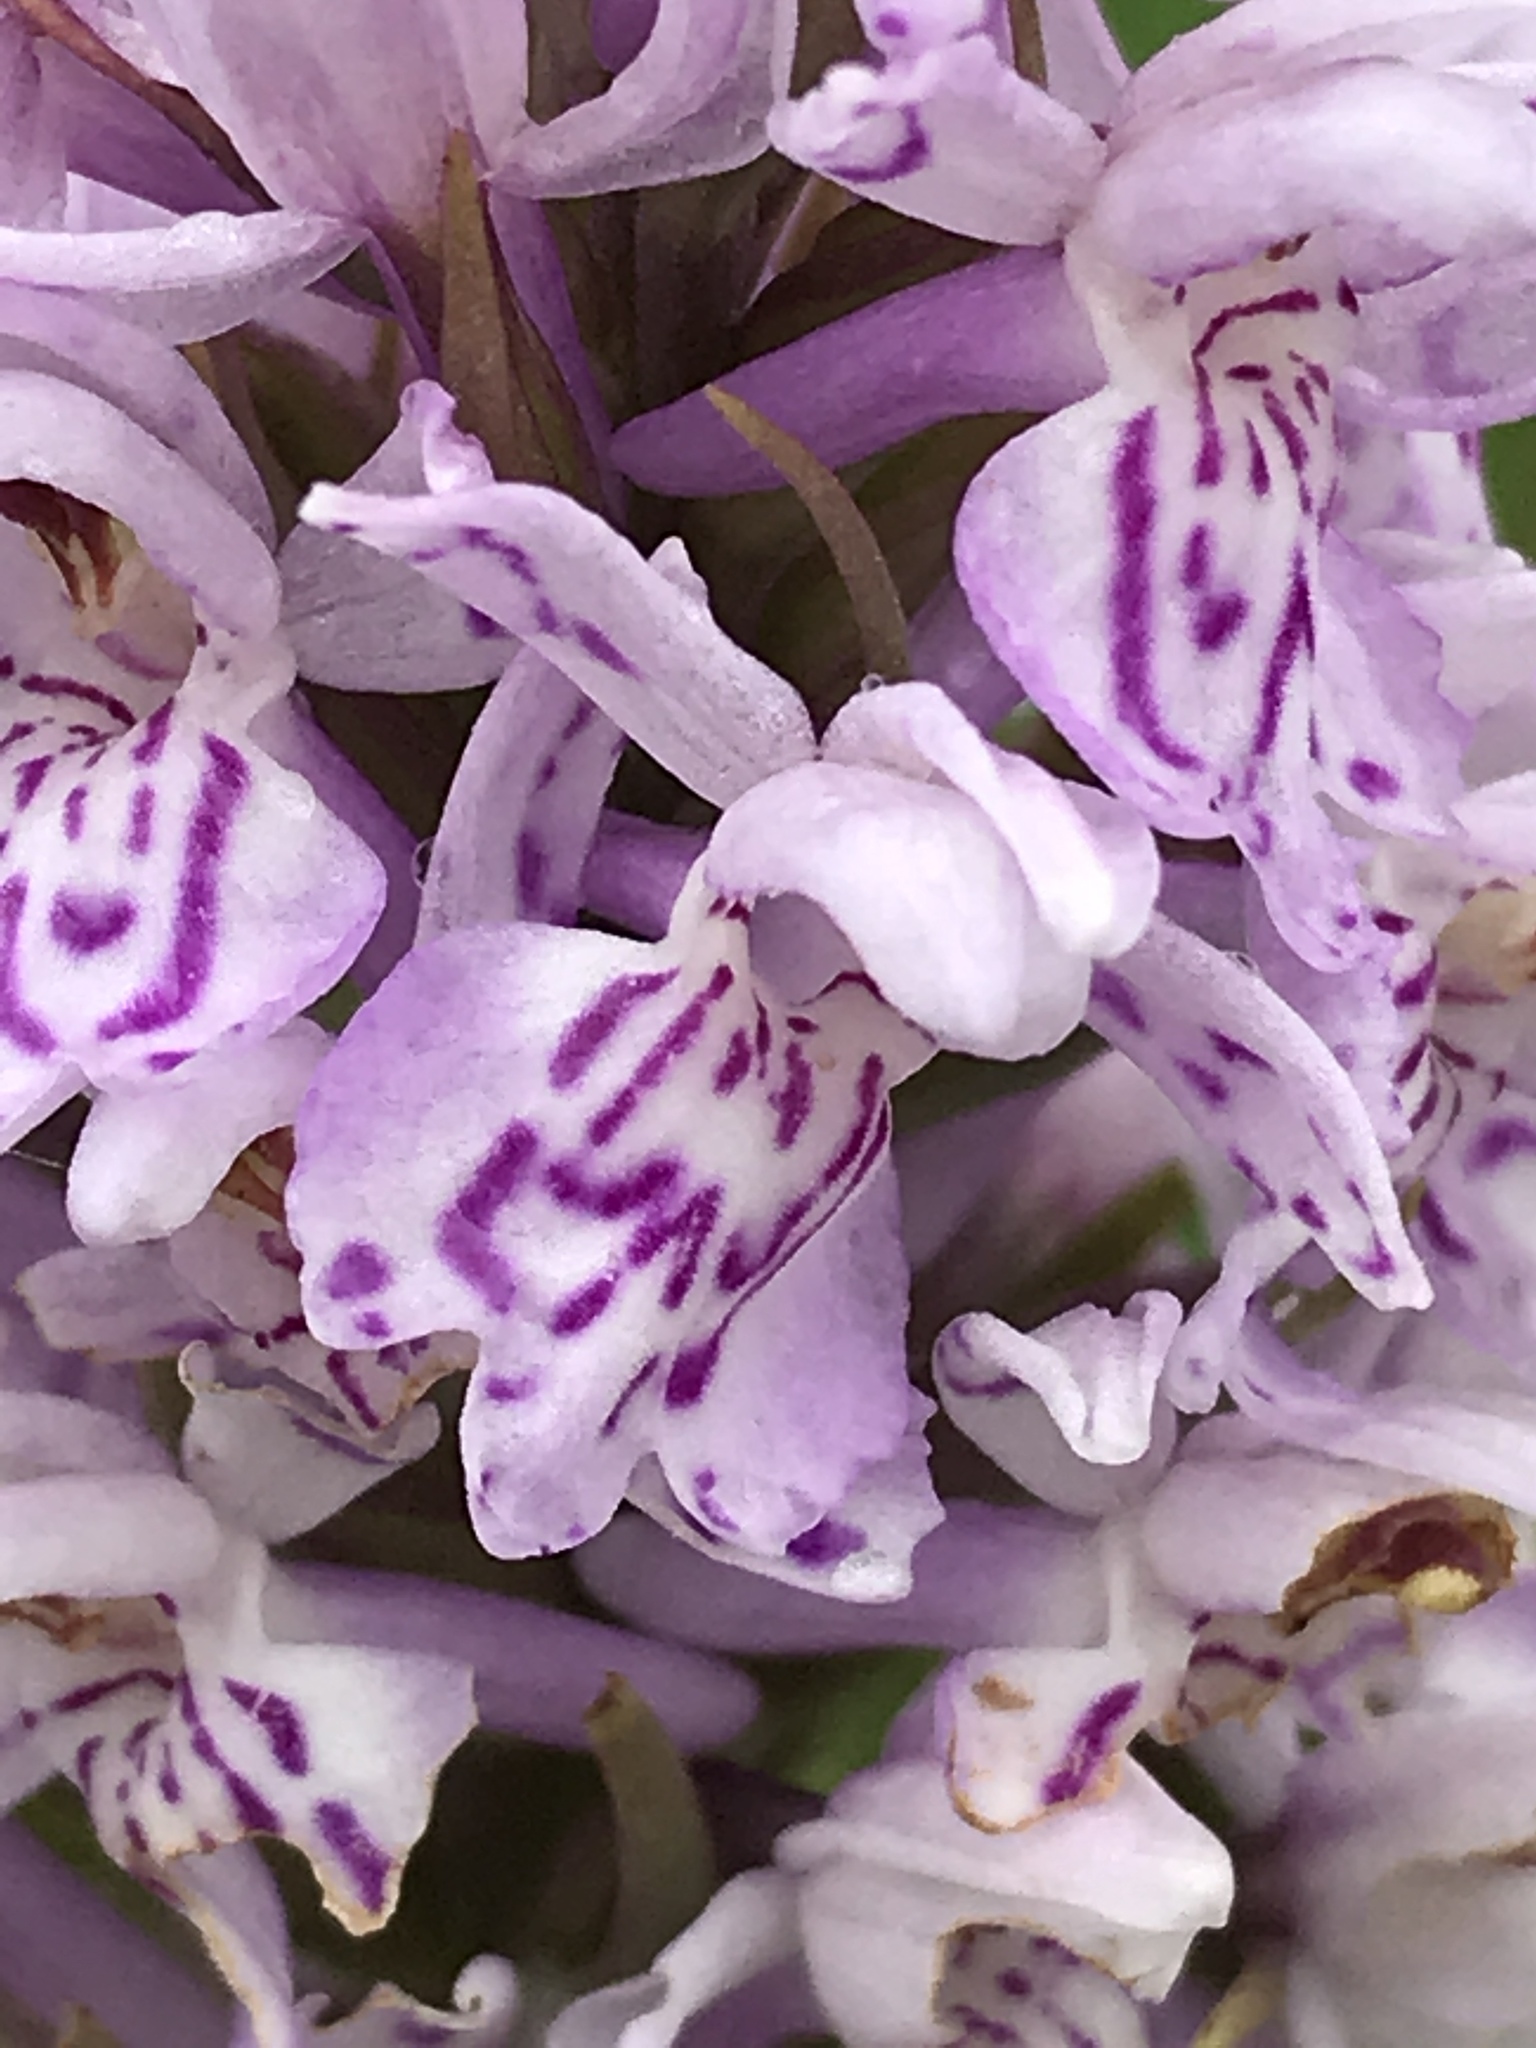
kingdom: Plantae
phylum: Tracheophyta
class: Liliopsida
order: Asparagales
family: Orchidaceae
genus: Dactylorhiza
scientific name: Dactylorhiza maculata
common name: Heath spotted-orchid
